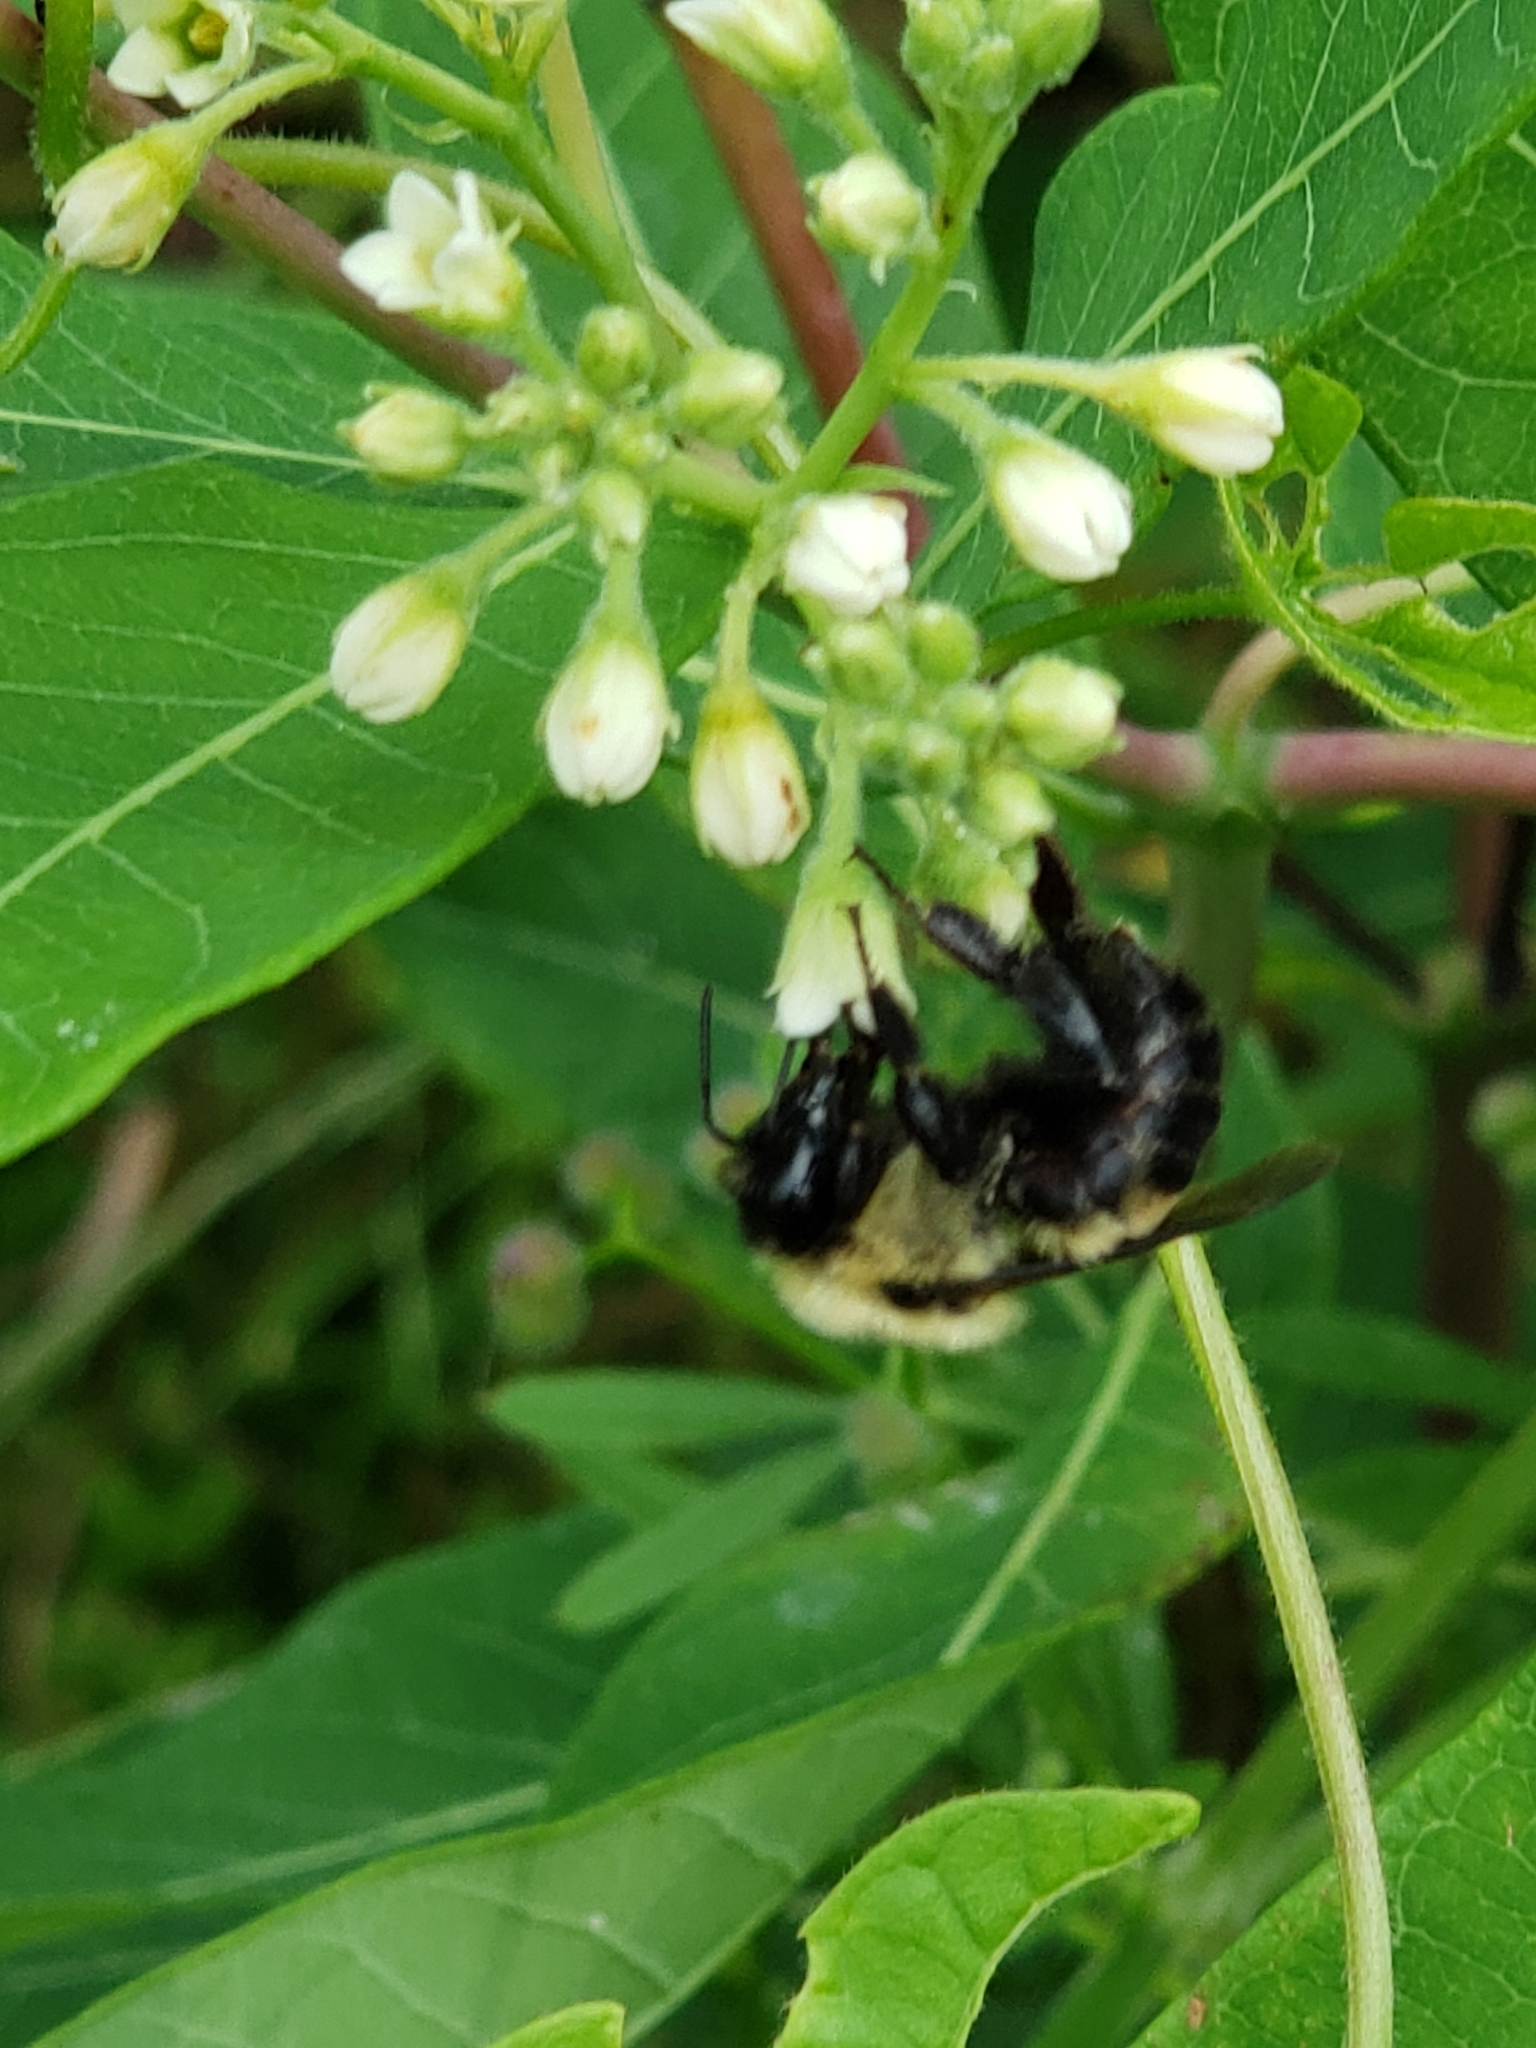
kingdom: Animalia
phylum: Arthropoda
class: Insecta
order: Hymenoptera
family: Apidae
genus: Bombus
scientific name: Bombus griseocollis
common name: Brown-belted bumble bee
